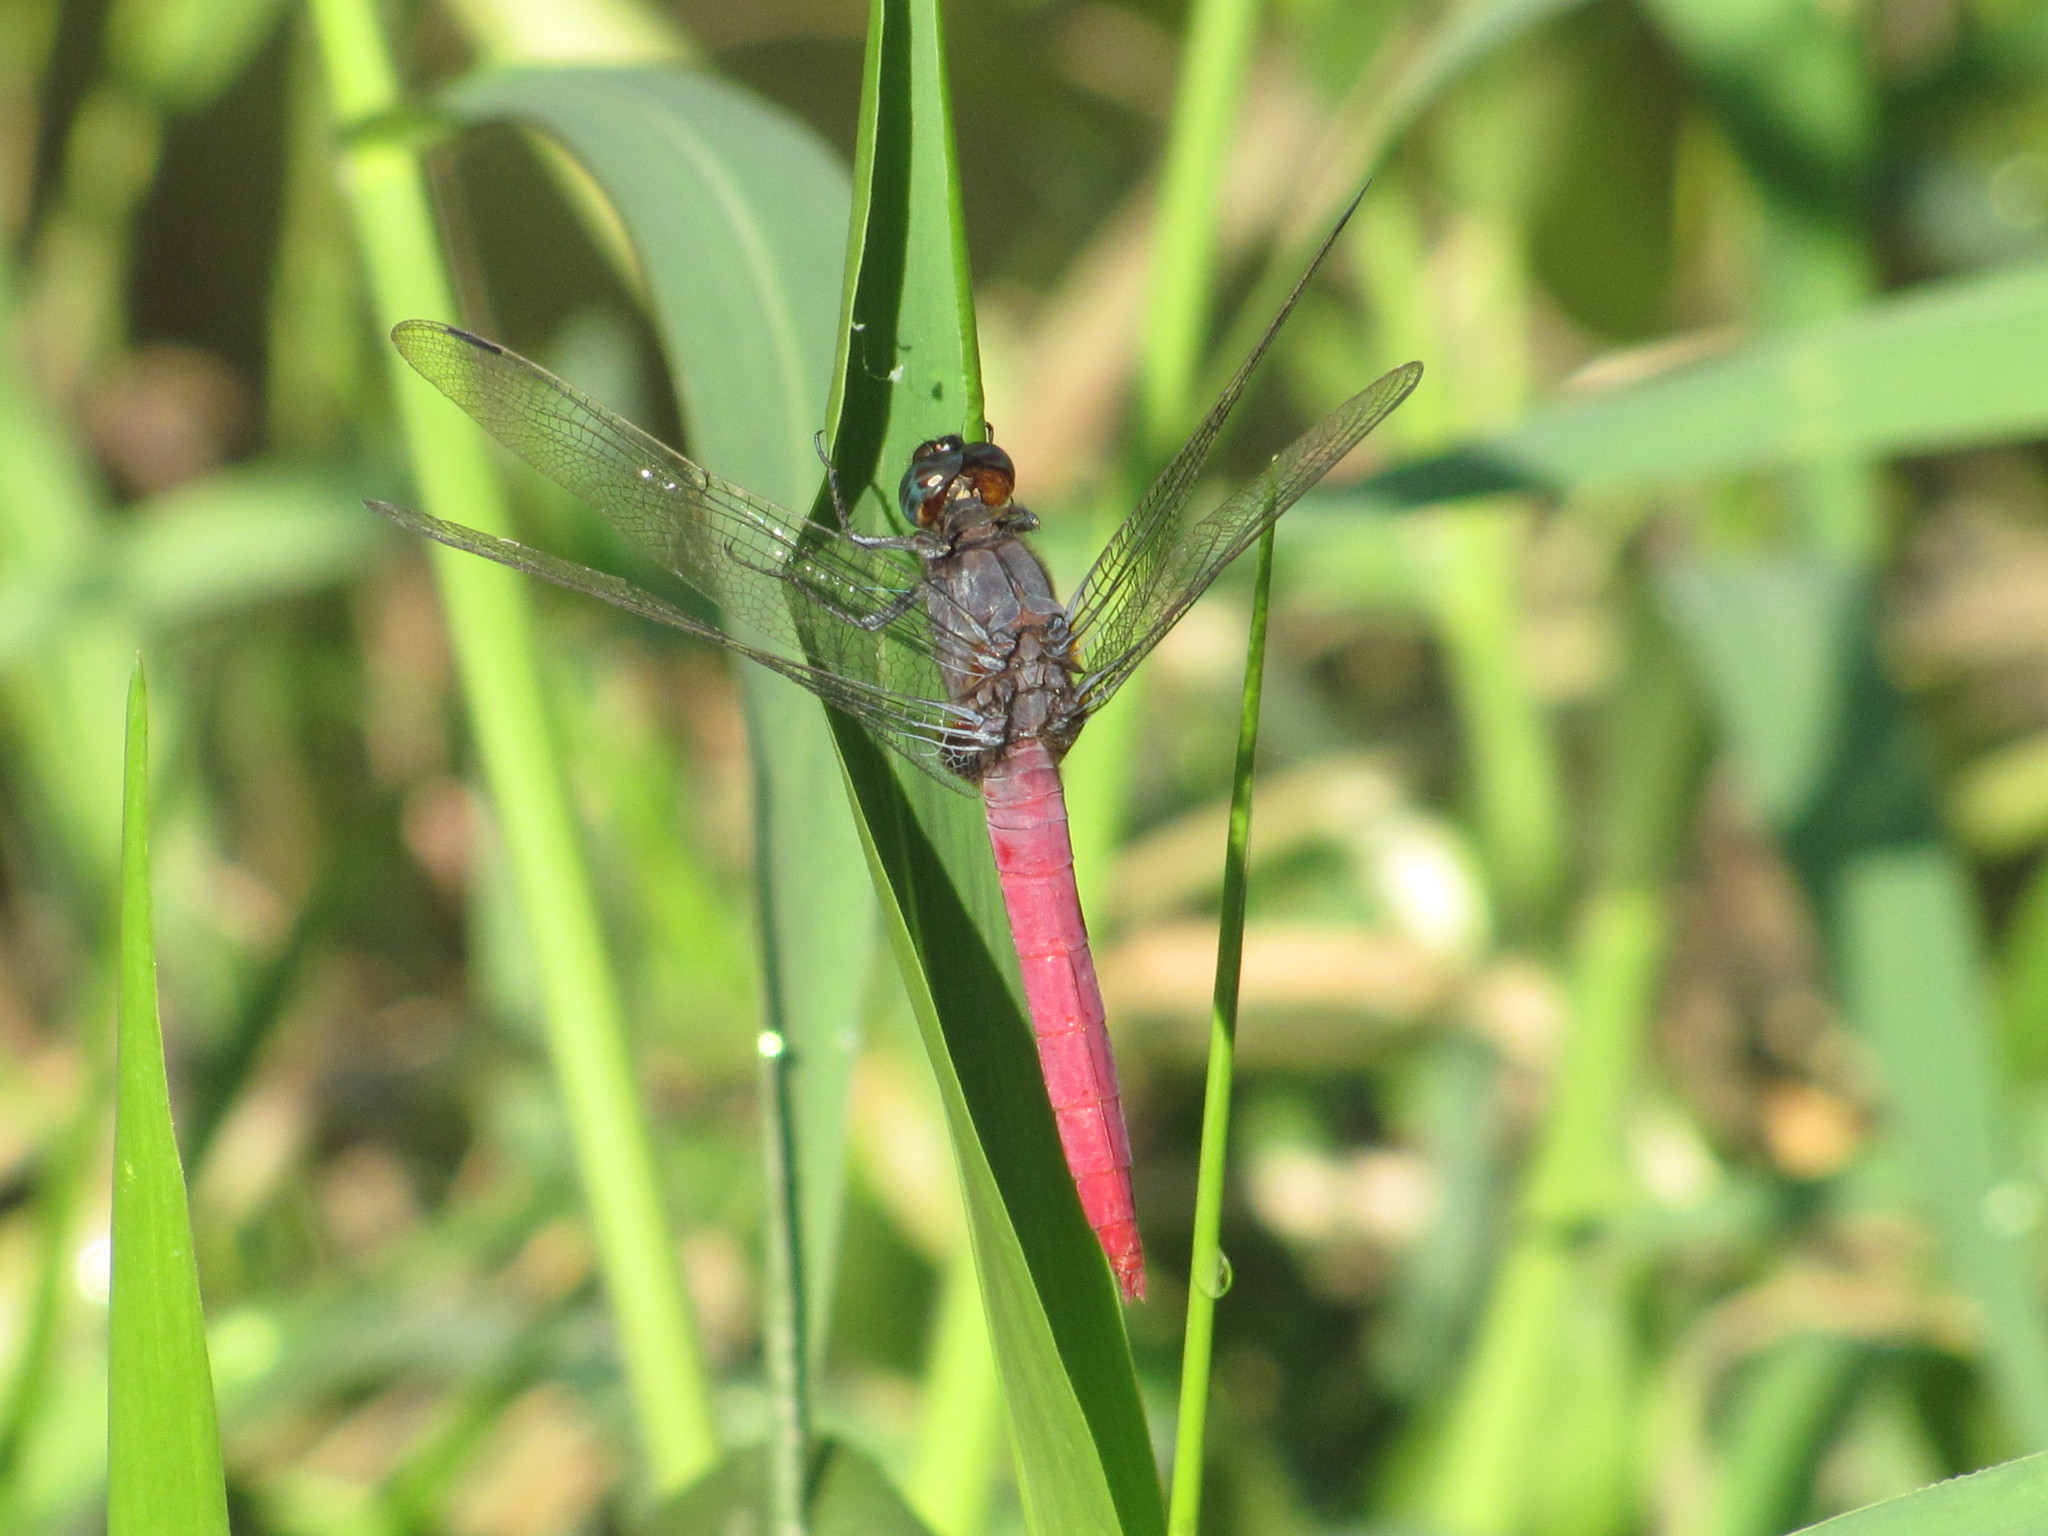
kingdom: Animalia
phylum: Arthropoda
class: Insecta
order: Odonata
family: Libellulidae
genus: Orthetrum
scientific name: Orthetrum pruinosum
